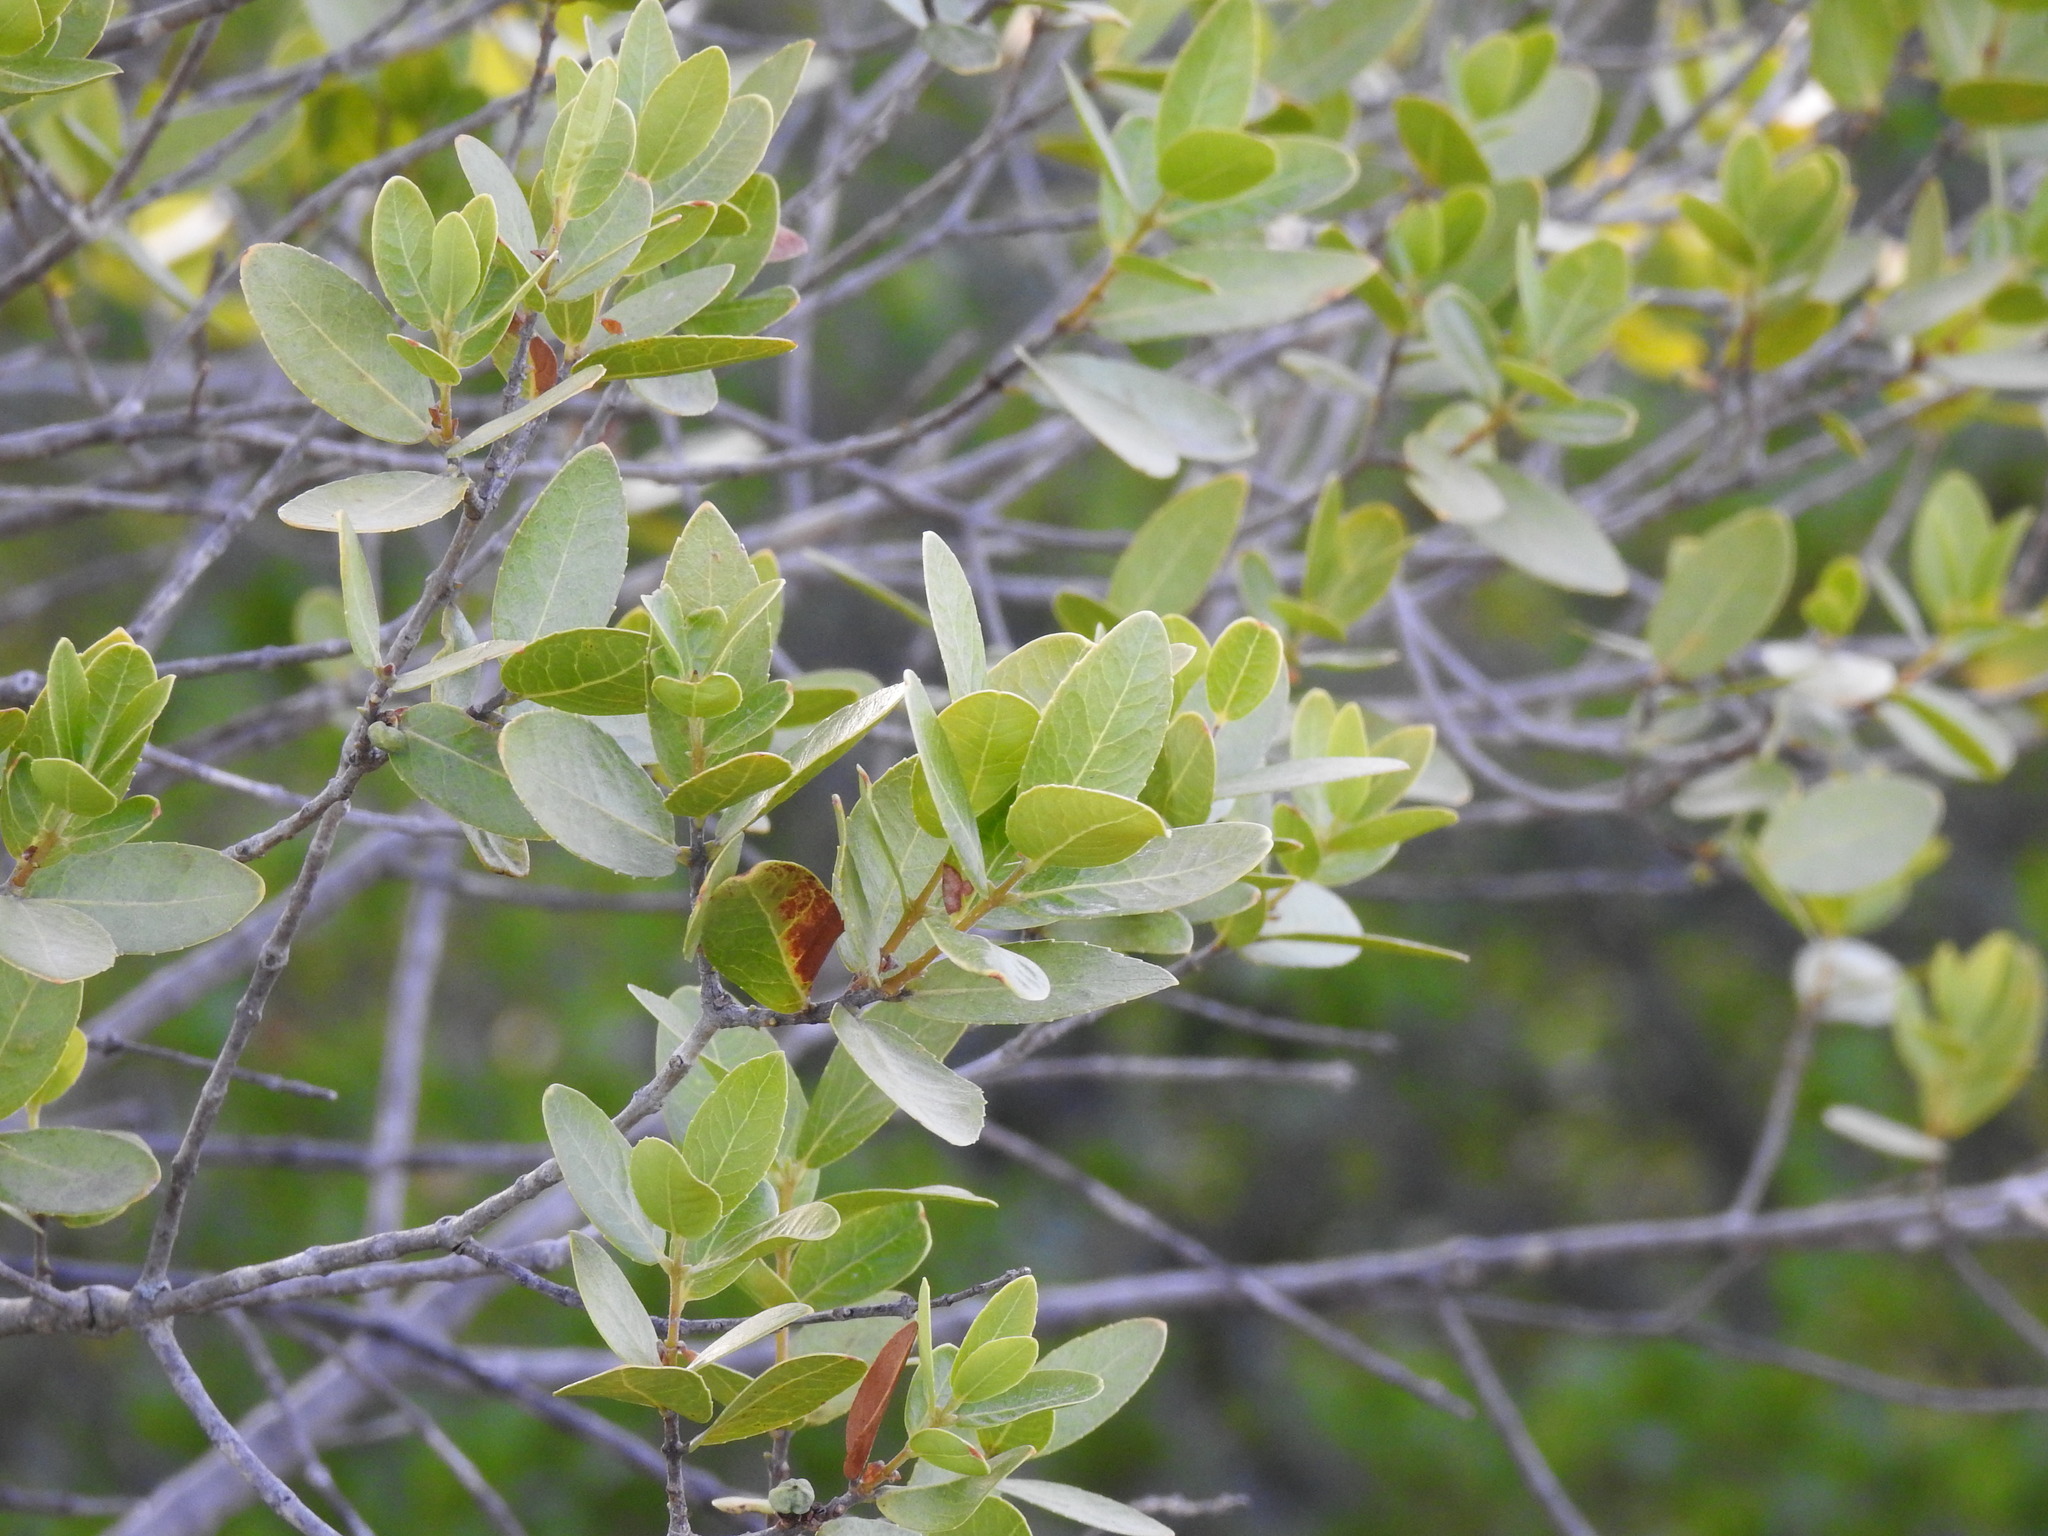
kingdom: Plantae
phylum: Tracheophyta
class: Magnoliopsida
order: Lamiales
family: Oleaceae
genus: Phillyrea
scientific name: Phillyrea latifolia
